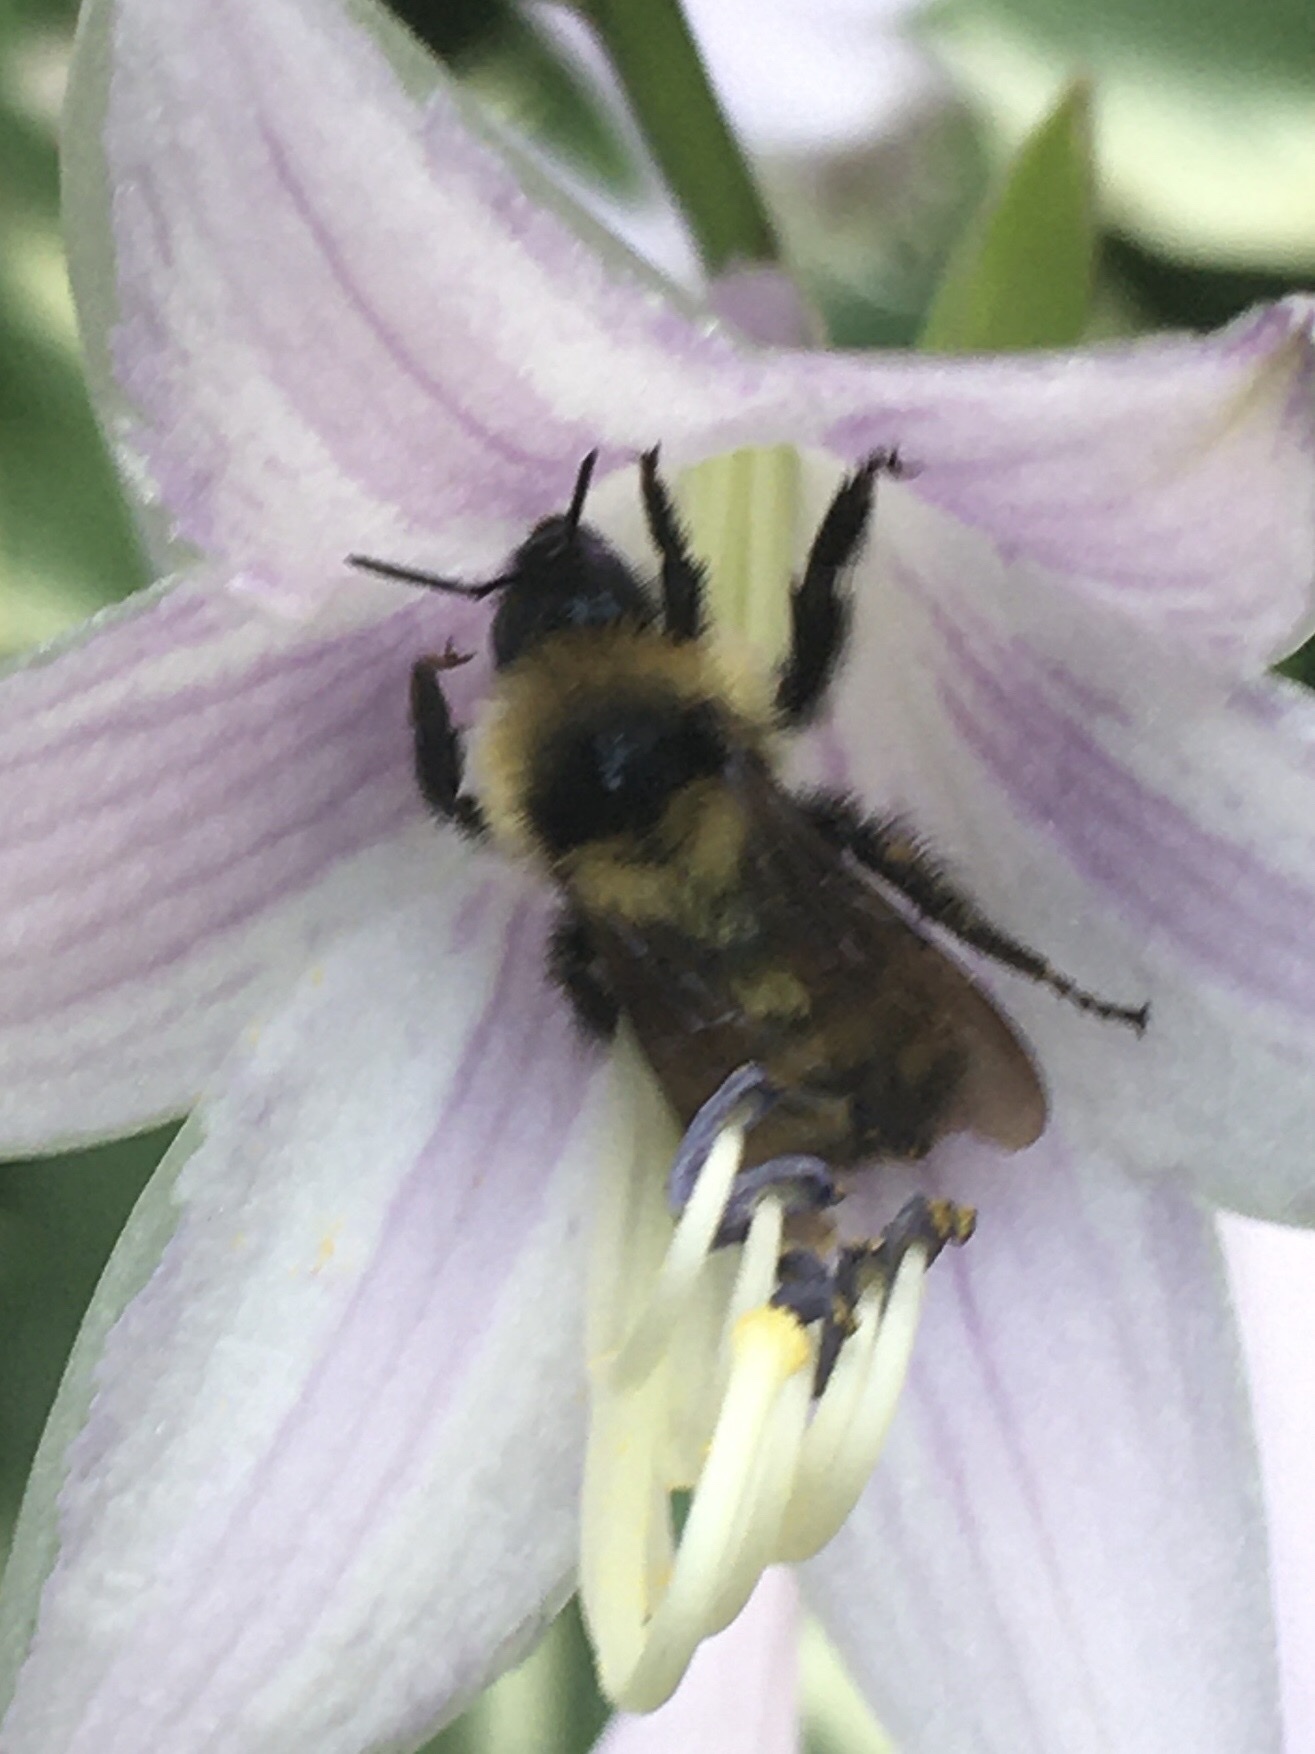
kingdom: Animalia
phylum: Arthropoda
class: Insecta
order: Hymenoptera
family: Apidae
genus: Bombus
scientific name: Bombus fervidus
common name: Yellow bumble bee
